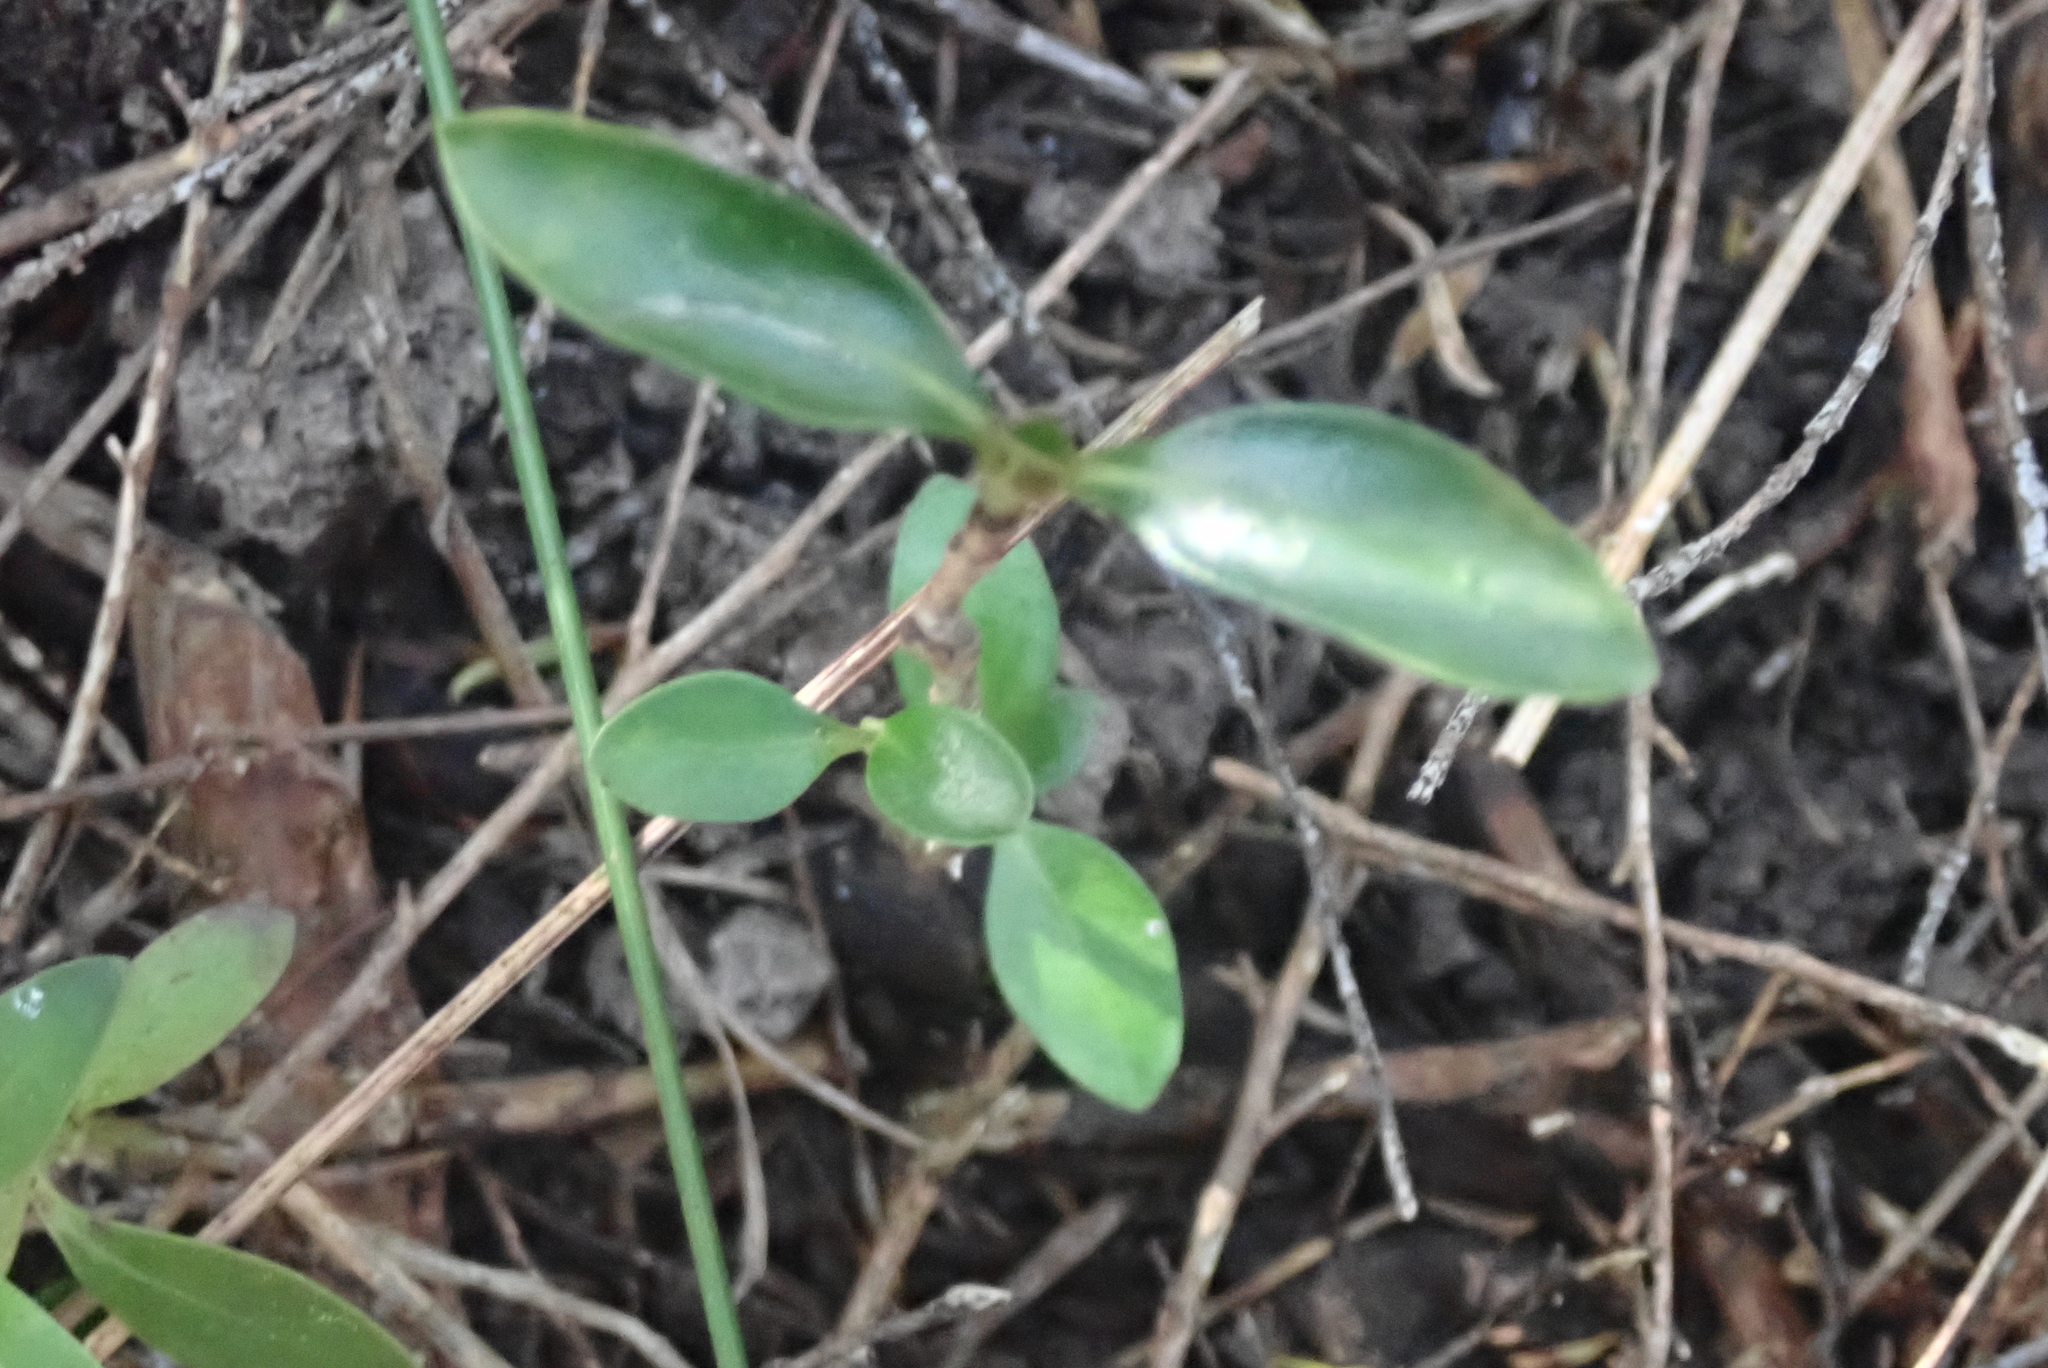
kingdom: Plantae
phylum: Tracheophyta
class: Magnoliopsida
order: Gentianales
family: Rubiaceae
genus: Coprosma
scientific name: Coprosma lucida
